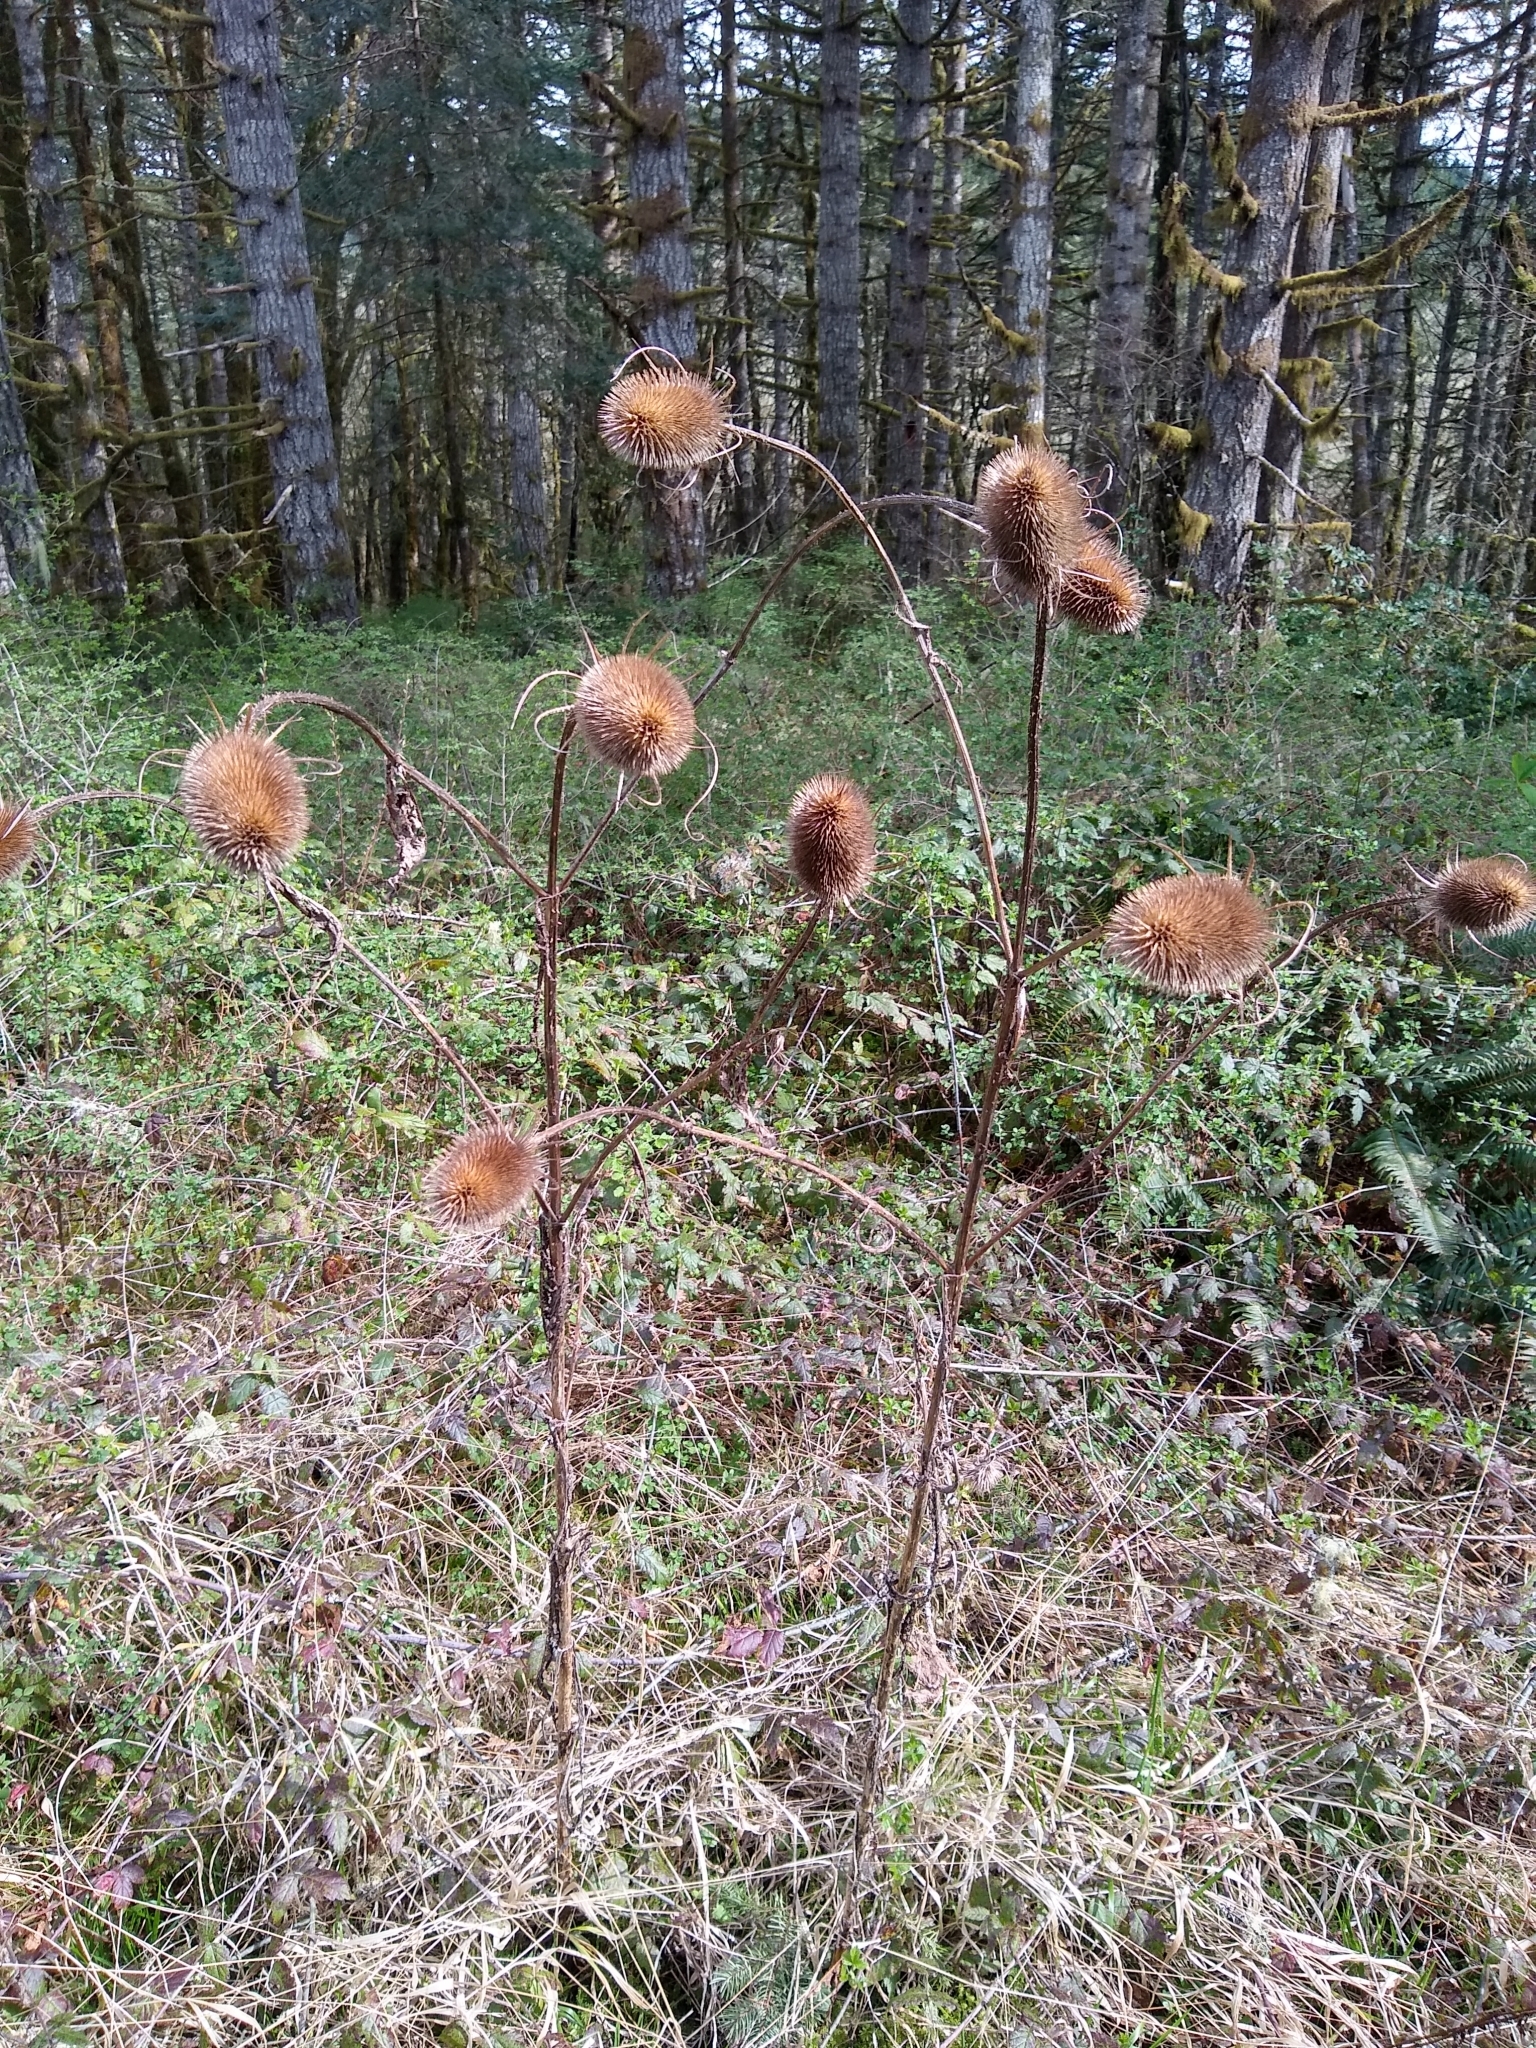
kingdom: Plantae
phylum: Tracheophyta
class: Magnoliopsida
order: Dipsacales
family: Caprifoliaceae
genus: Dipsacus
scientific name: Dipsacus fullonum
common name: Teasel
